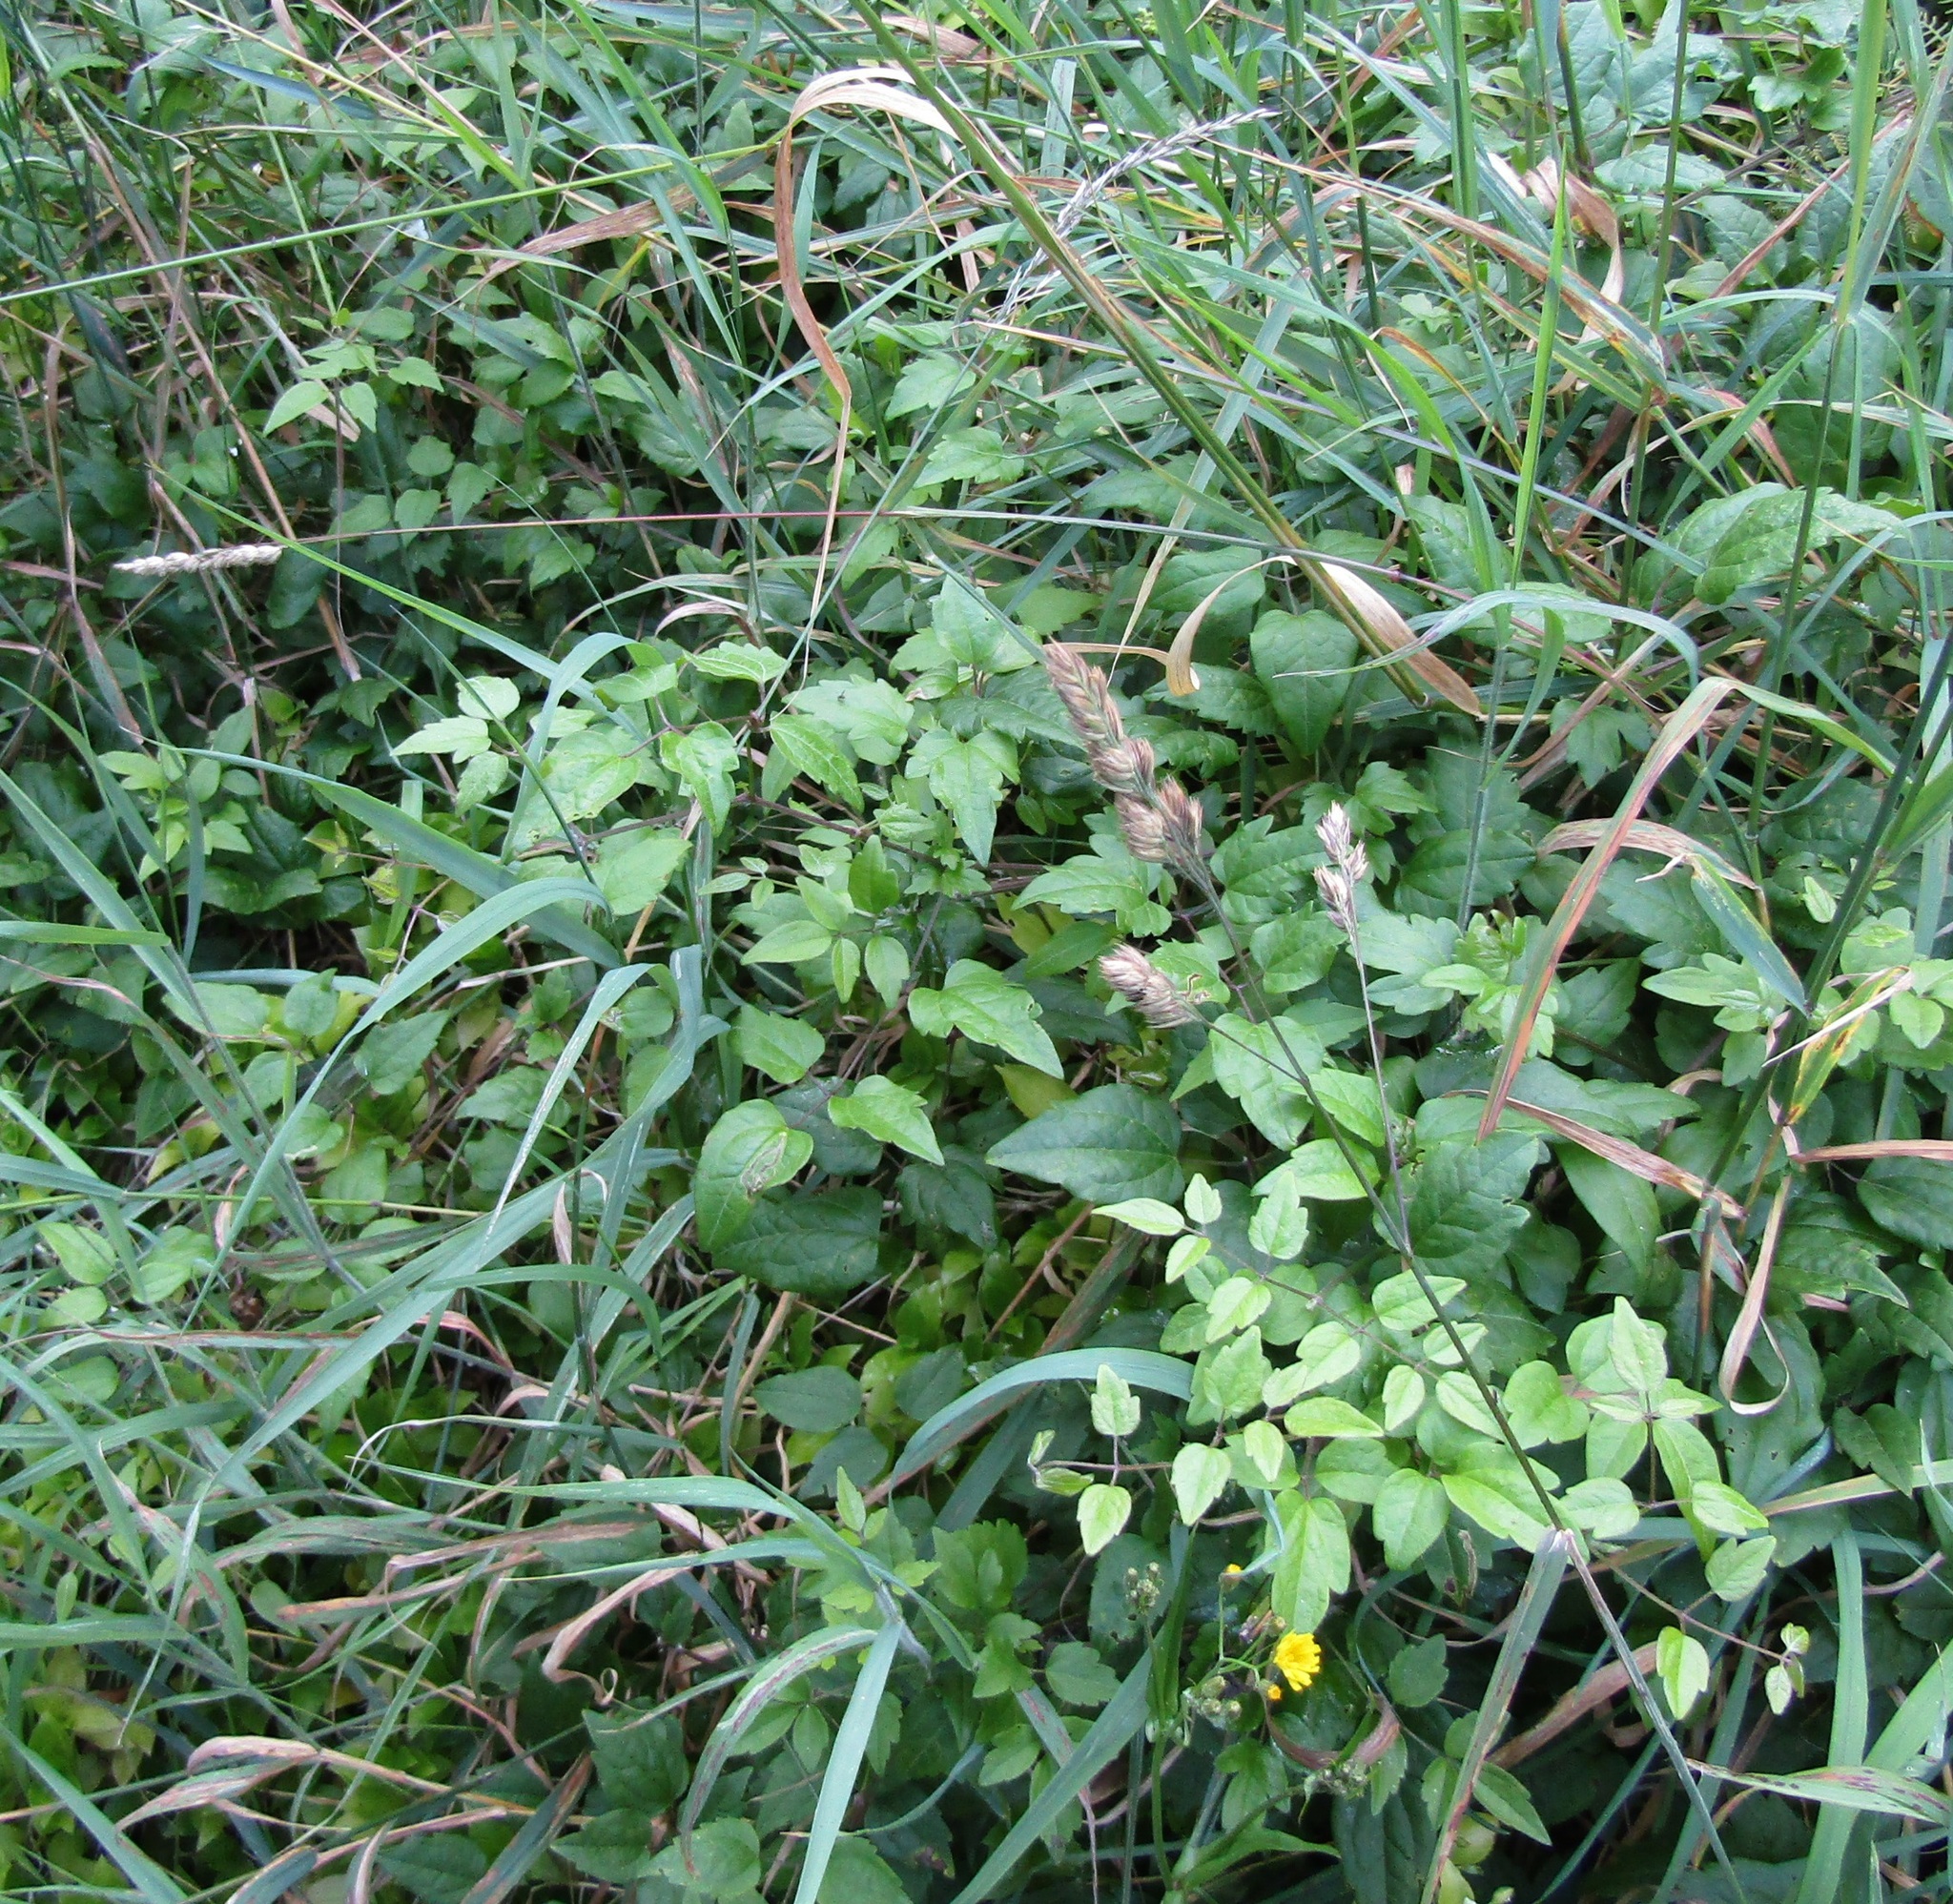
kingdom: Plantae
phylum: Tracheophyta
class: Magnoliopsida
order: Ranunculales
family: Ranunculaceae
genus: Clematis
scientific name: Clematis vitalba
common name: Evergreen clematis
